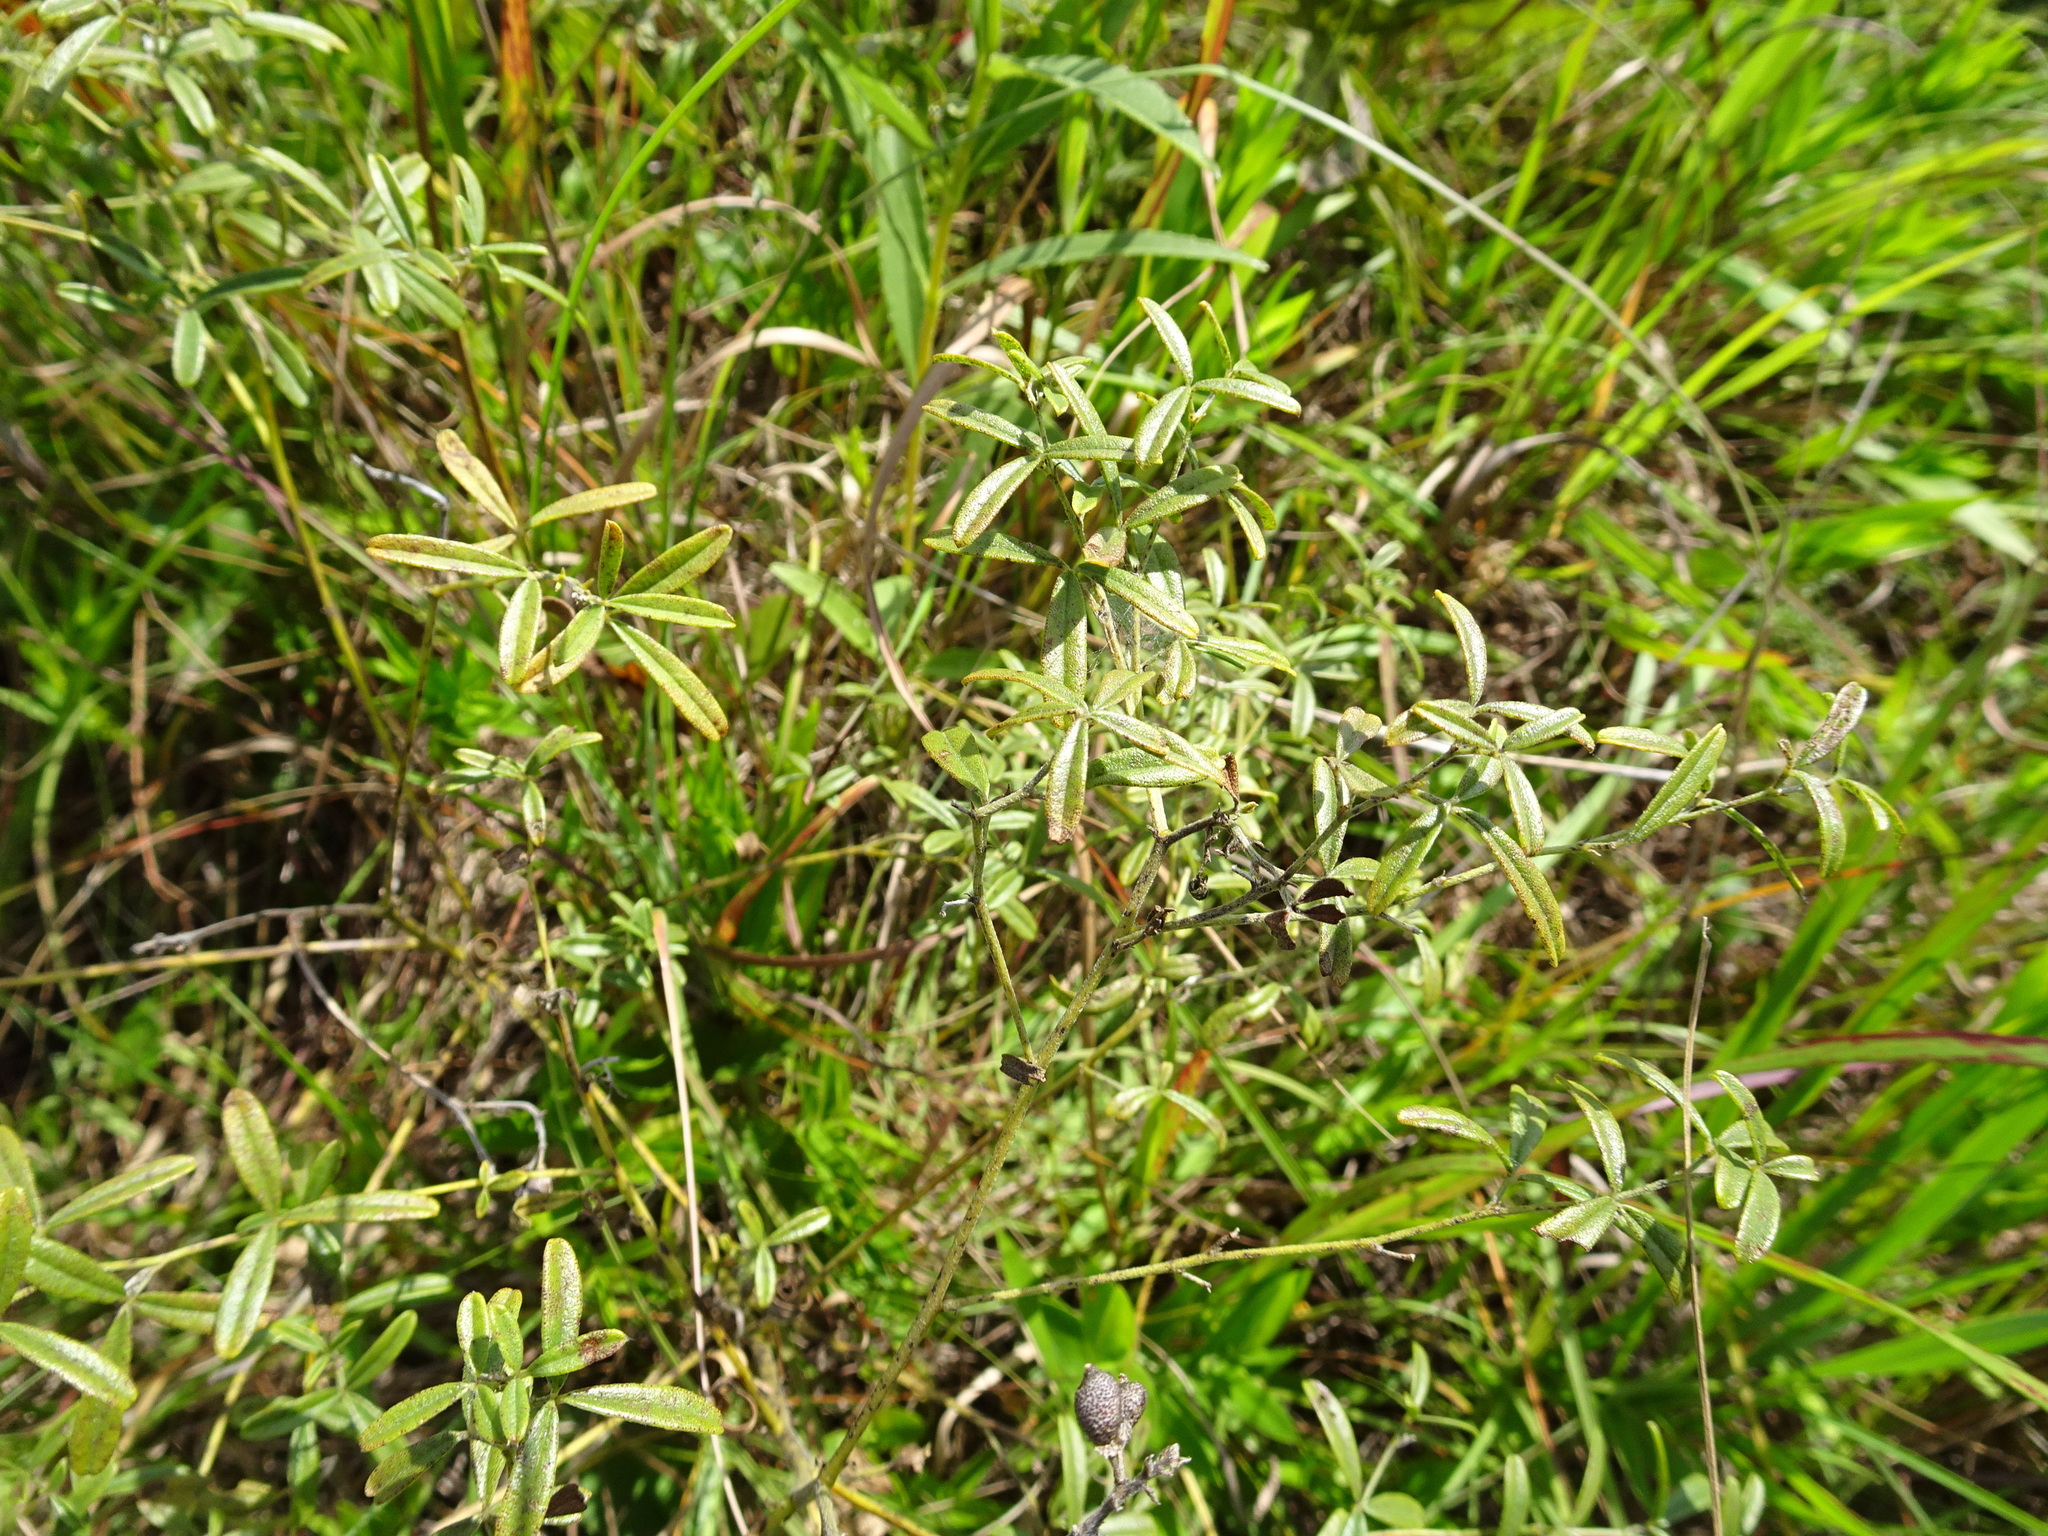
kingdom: Plantae
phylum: Tracheophyta
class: Magnoliopsida
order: Fabales
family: Fabaceae
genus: Pediomelum
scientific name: Pediomelum tenuiflorum
